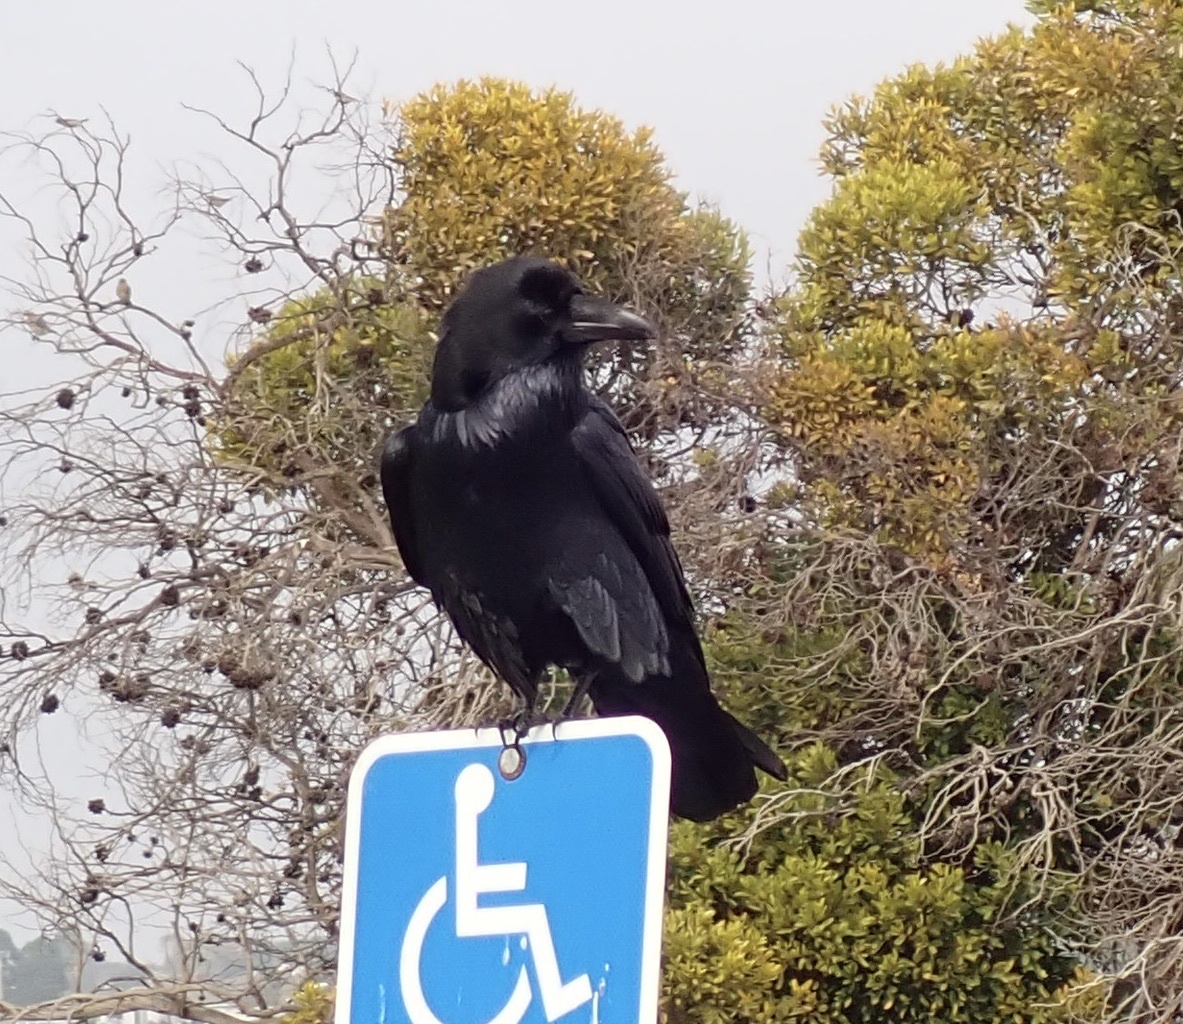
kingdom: Animalia
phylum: Chordata
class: Aves
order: Passeriformes
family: Corvidae
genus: Corvus
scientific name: Corvus corax
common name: Common raven
